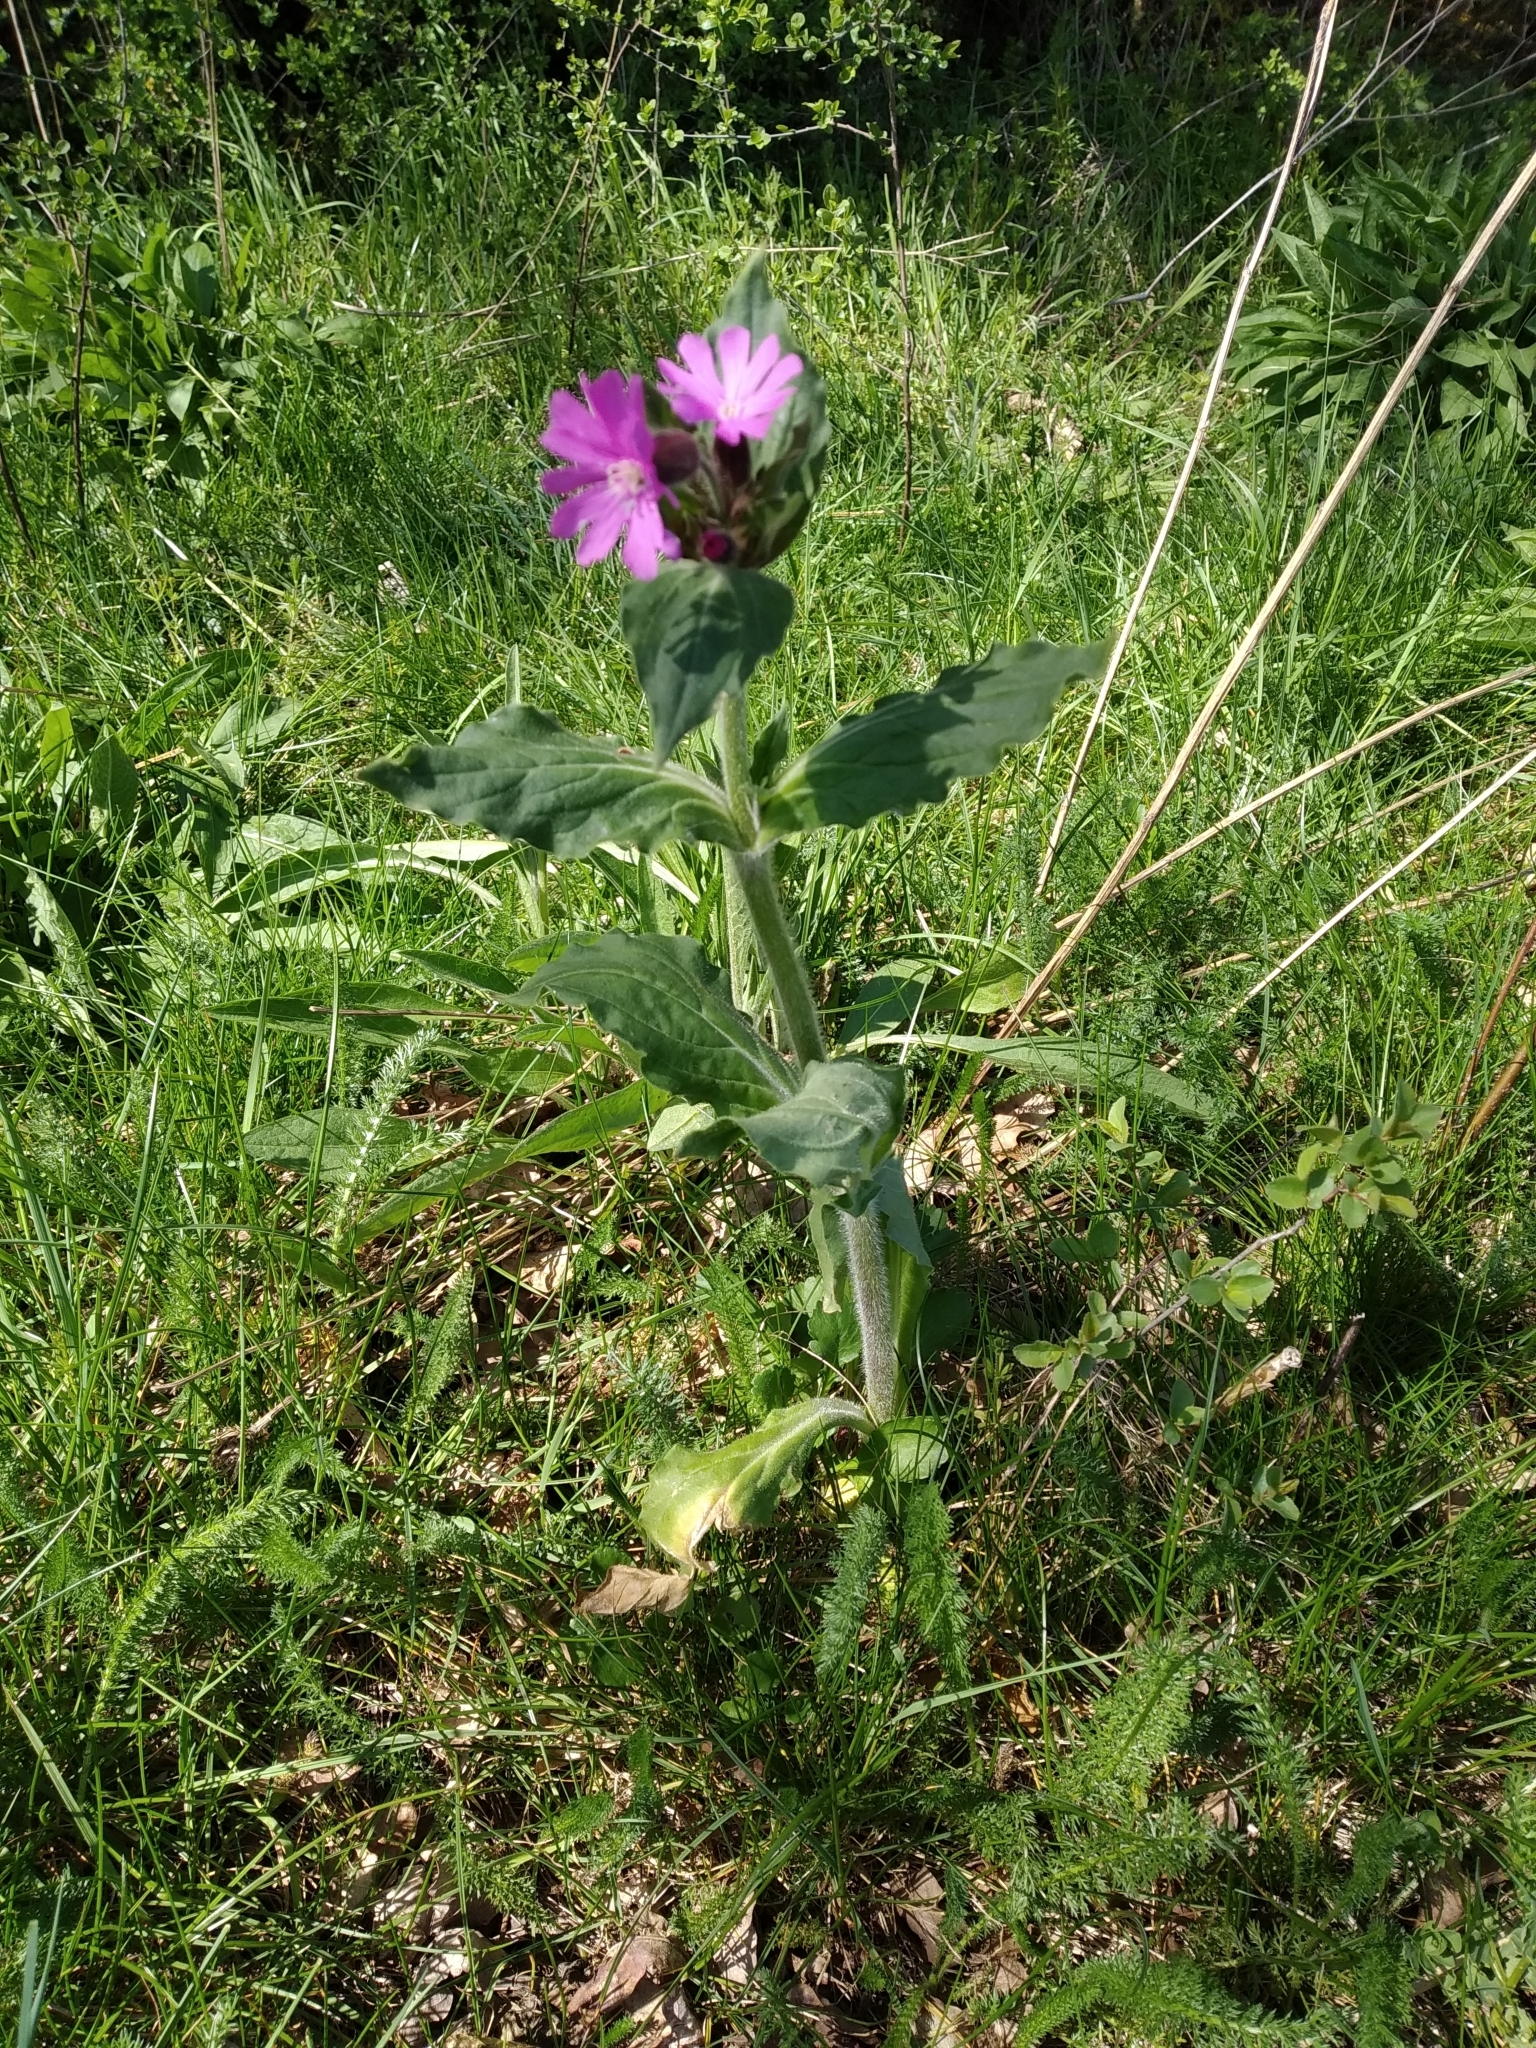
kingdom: Plantae
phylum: Tracheophyta
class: Magnoliopsida
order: Caryophyllales
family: Caryophyllaceae
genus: Silene
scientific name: Silene dioica
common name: Red campion
